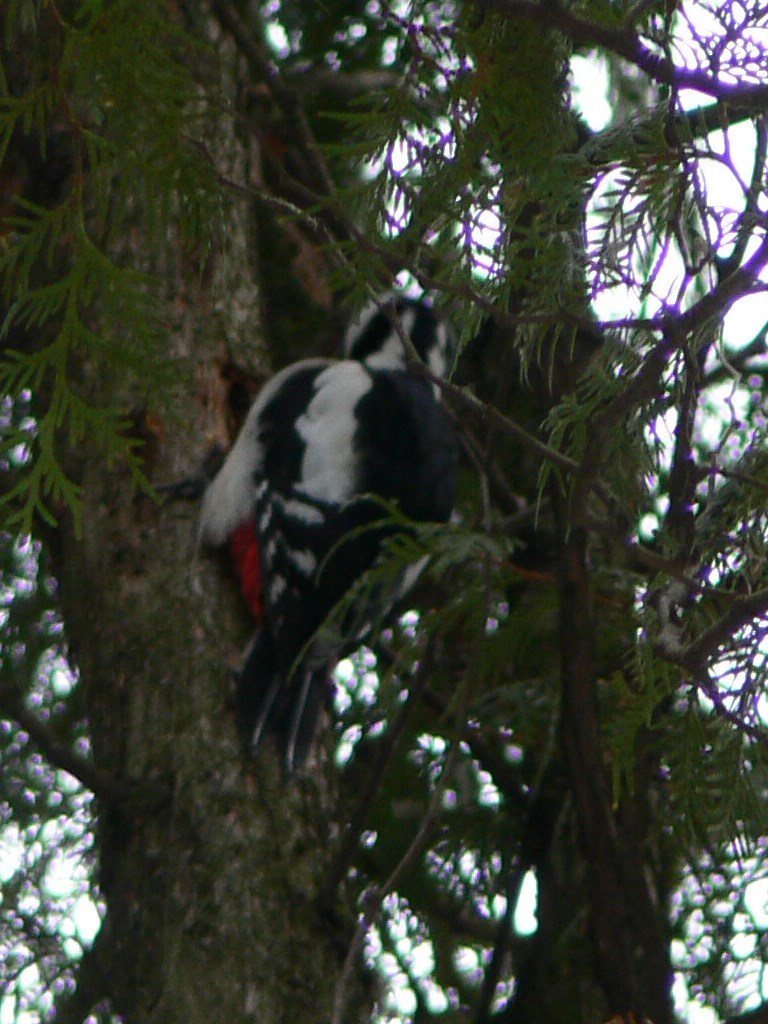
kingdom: Animalia
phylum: Chordata
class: Aves
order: Piciformes
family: Picidae
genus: Dendrocopos
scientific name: Dendrocopos major
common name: Great spotted woodpecker
